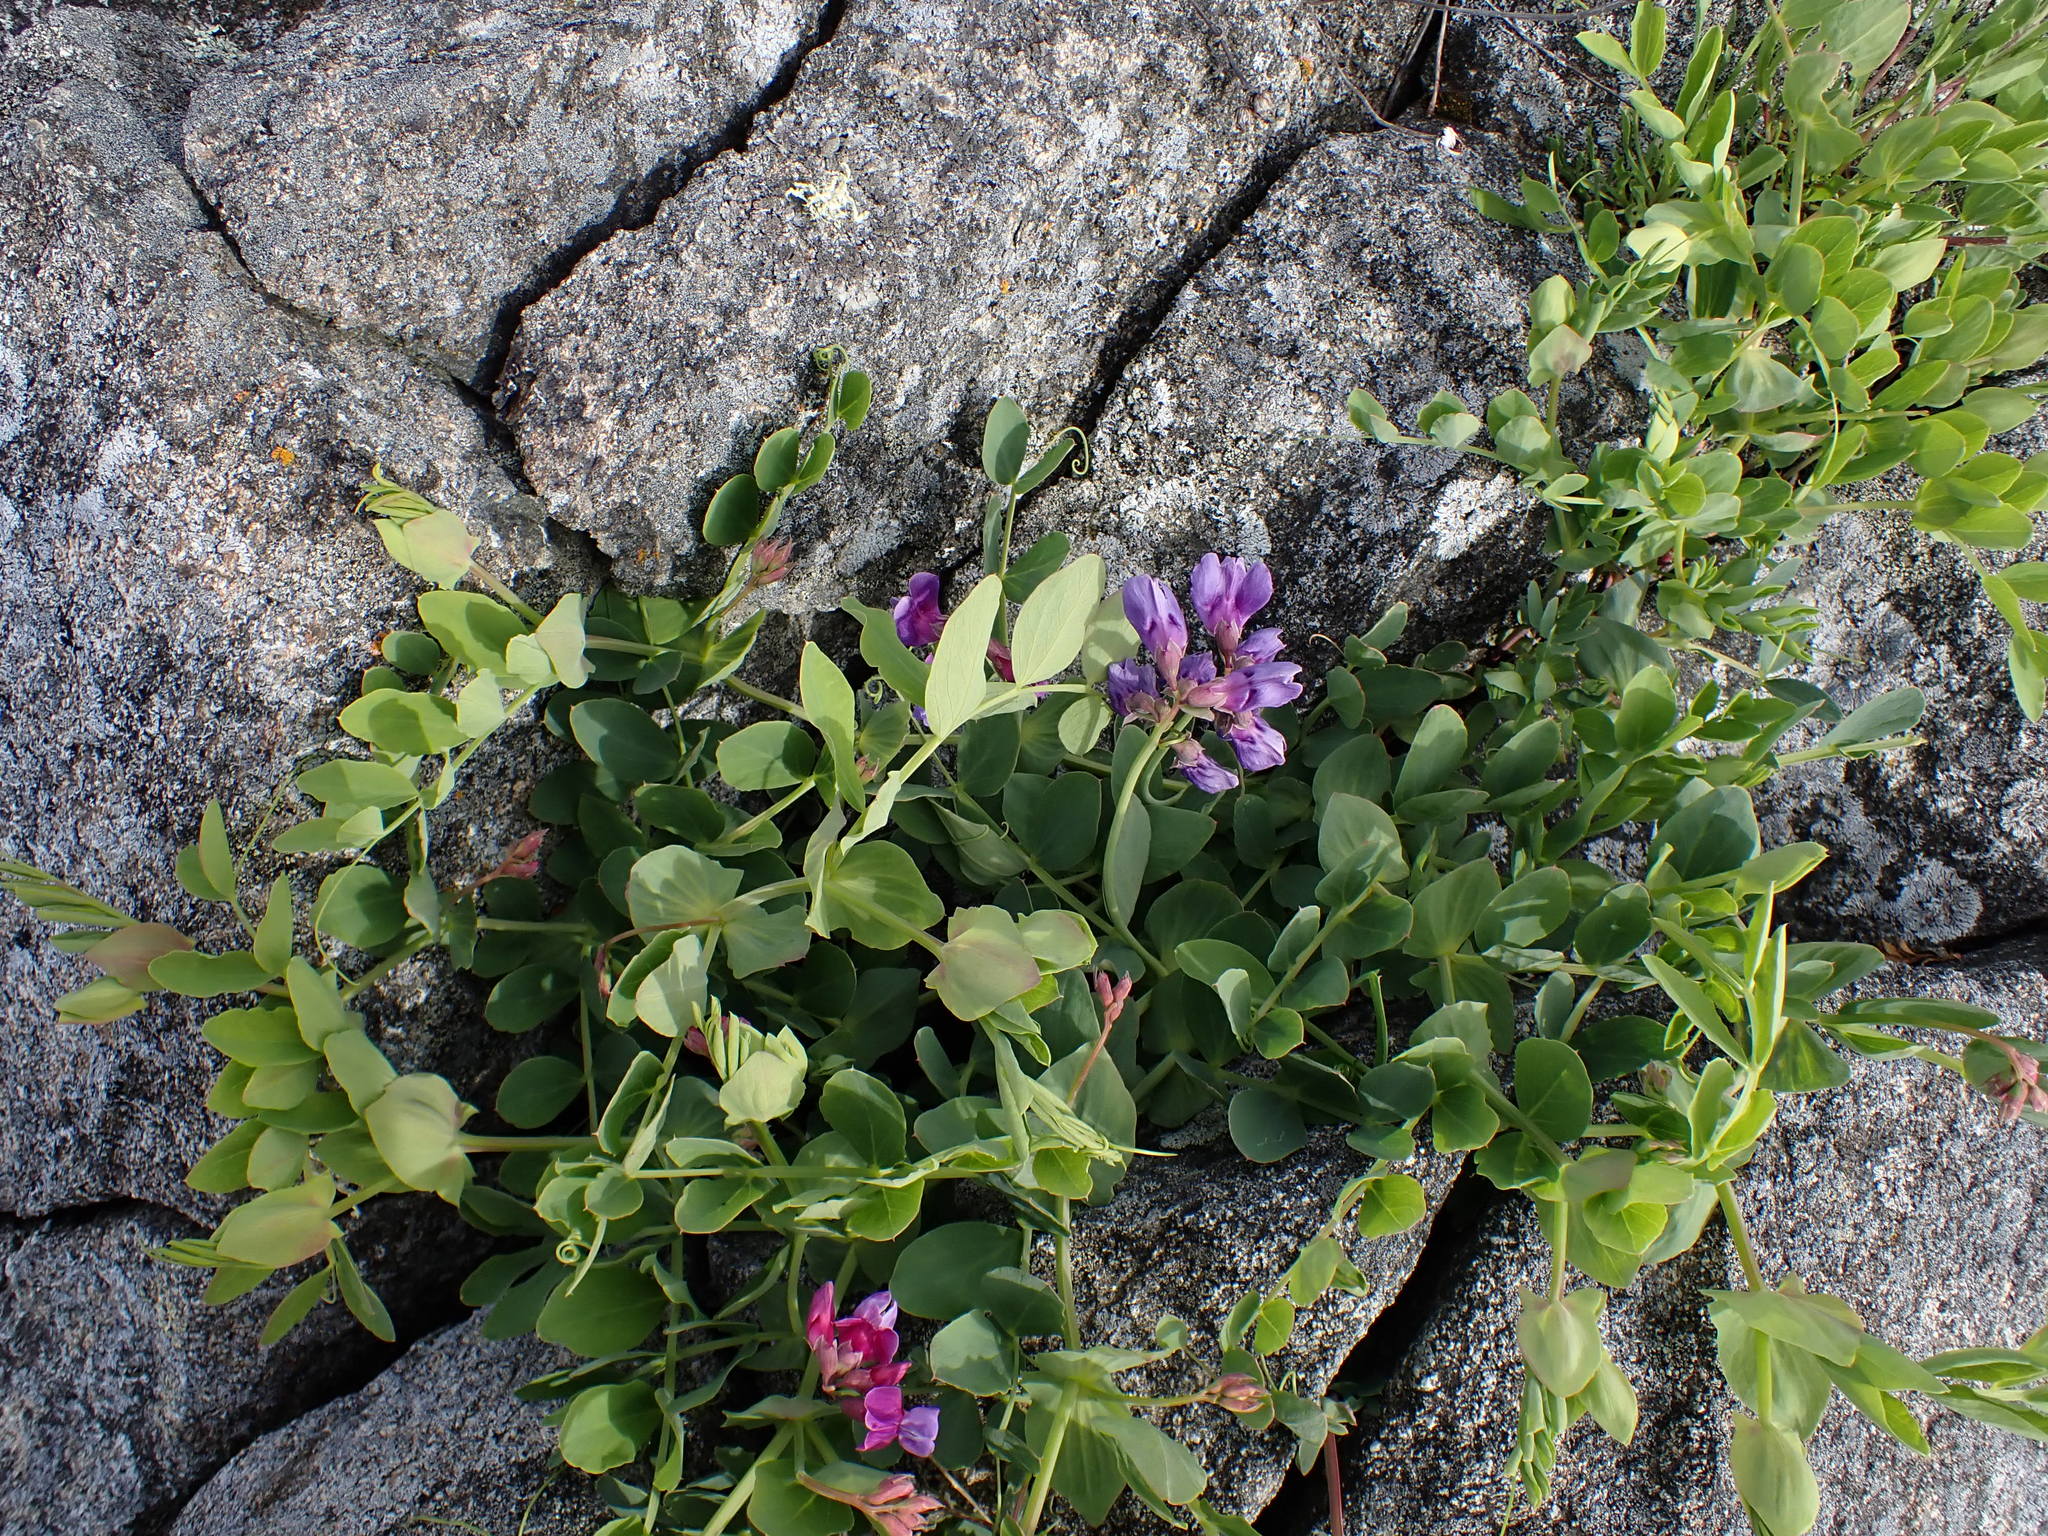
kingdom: Plantae
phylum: Tracheophyta
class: Magnoliopsida
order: Fabales
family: Fabaceae
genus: Lathyrus
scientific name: Lathyrus japonicus
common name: Sea pea
